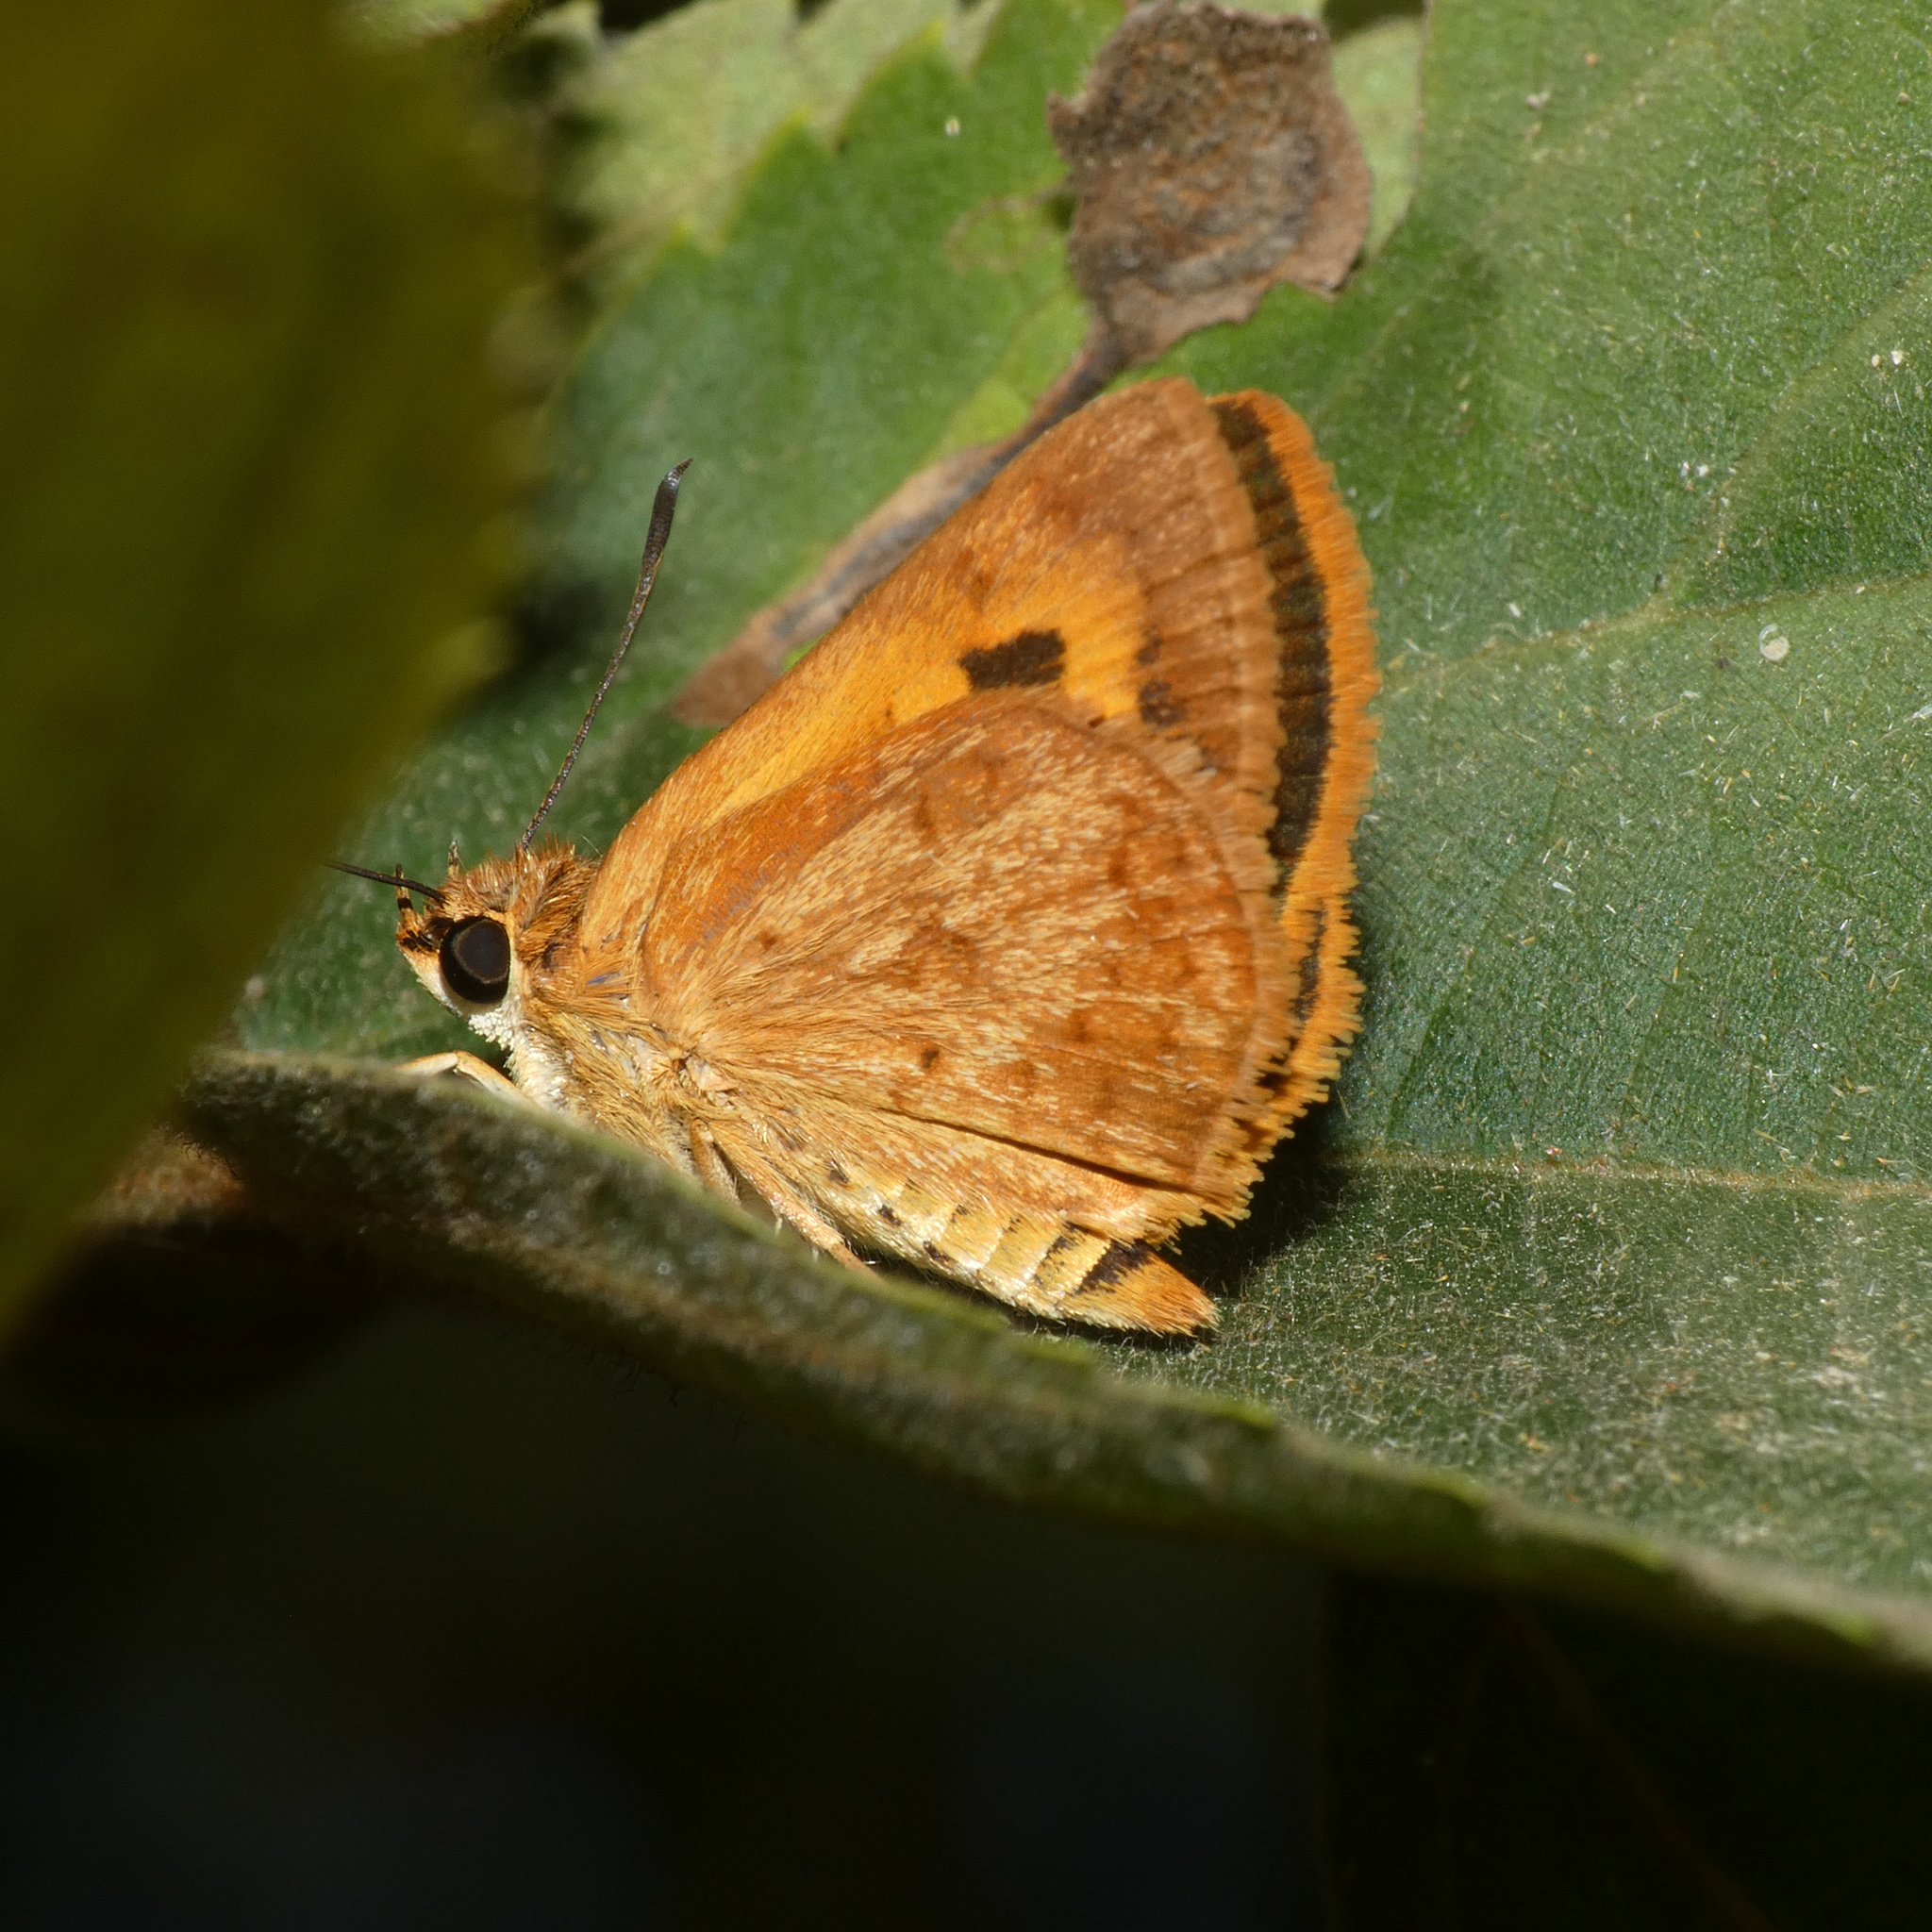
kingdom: Animalia
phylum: Arthropoda
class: Insecta
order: Lepidoptera
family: Hesperiidae
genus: Acada
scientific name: Acada biseriatus
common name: Axehead orange
